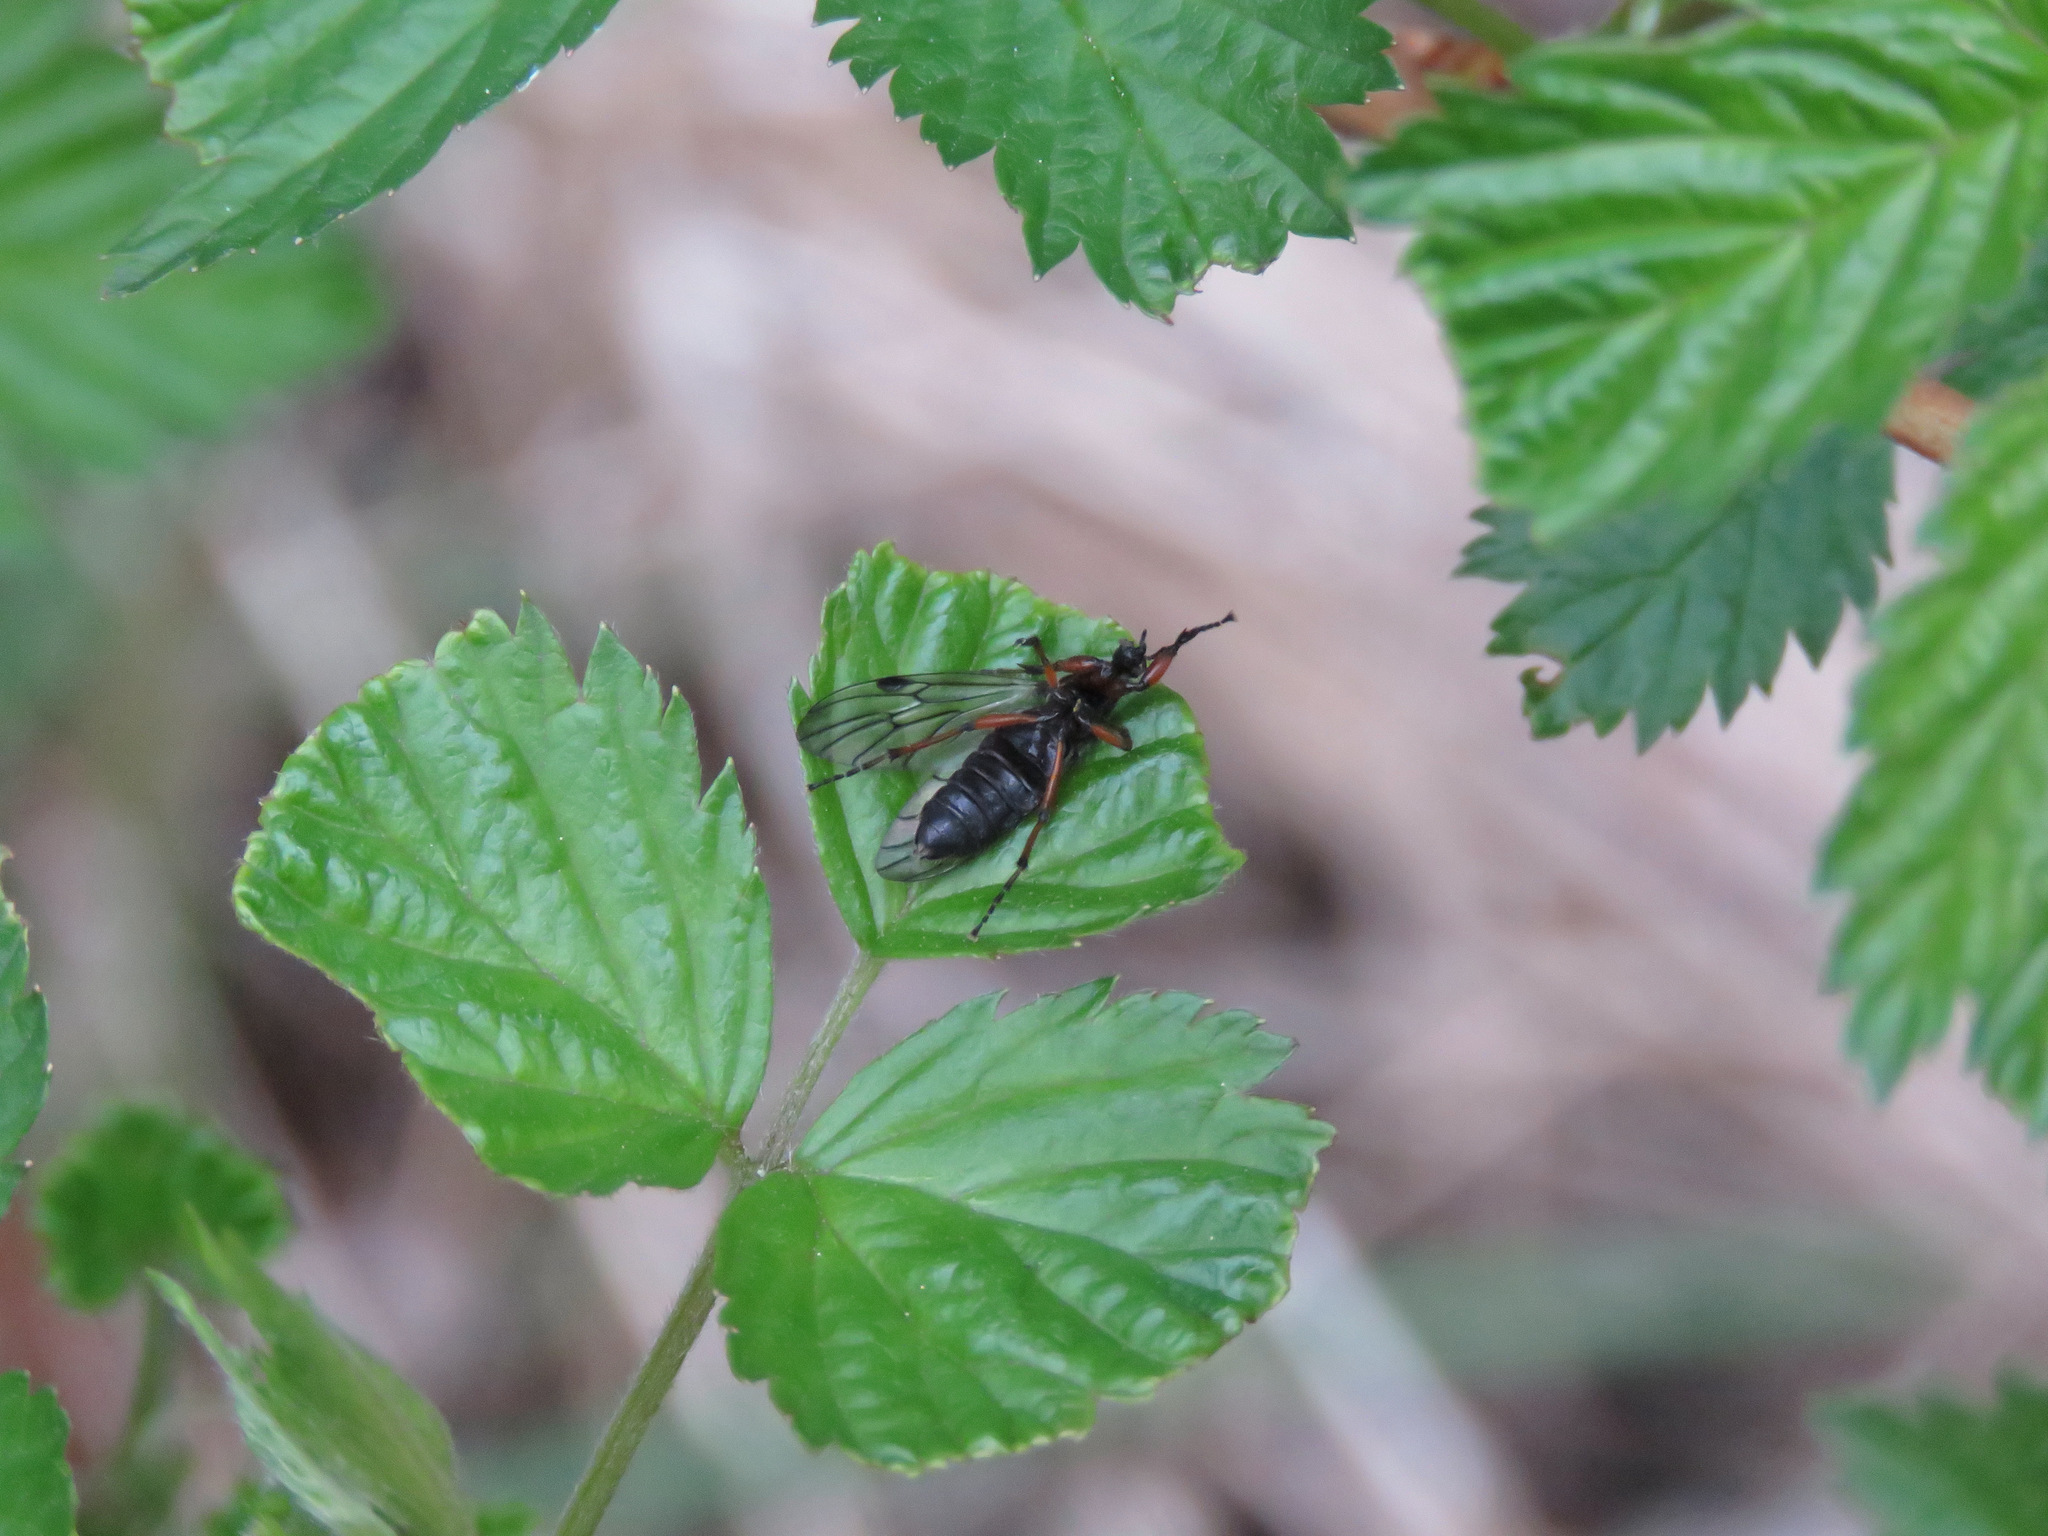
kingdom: Animalia
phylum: Arthropoda
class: Insecta
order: Diptera
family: Bibionidae
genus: Bibio
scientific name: Bibio
